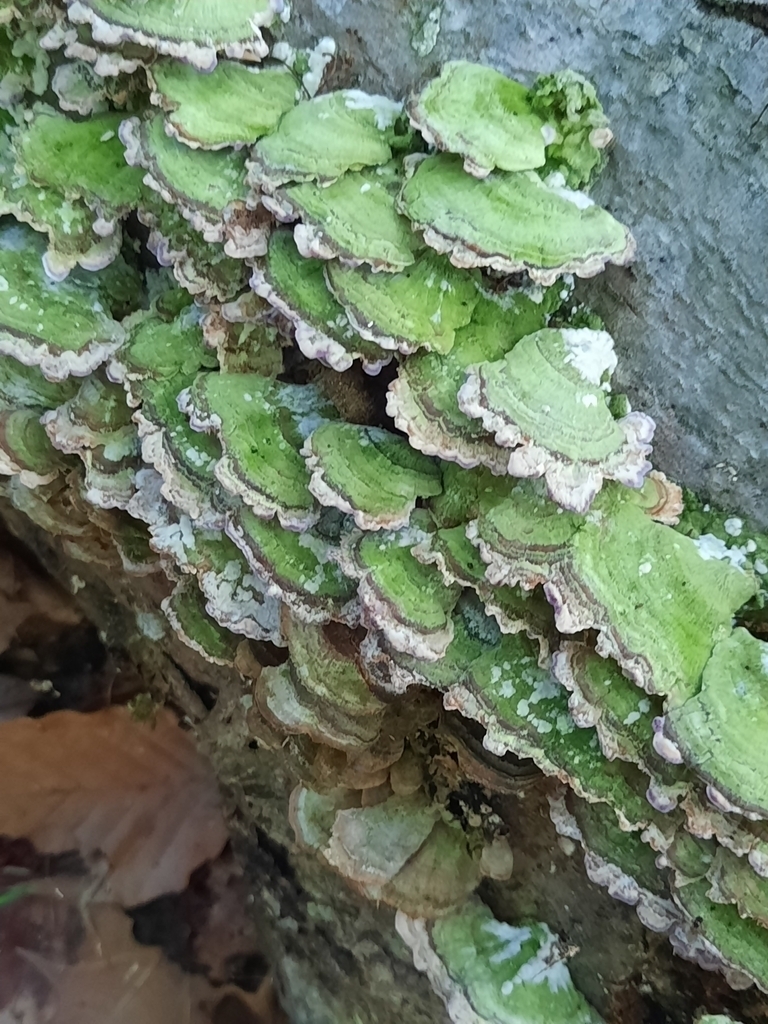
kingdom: Fungi
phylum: Ascomycota
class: Eurotiomycetes
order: Mycocaliciales
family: Mycocaliciaceae
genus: Phaeocalicium
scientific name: Phaeocalicium polyporaeum
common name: Fairy pins
